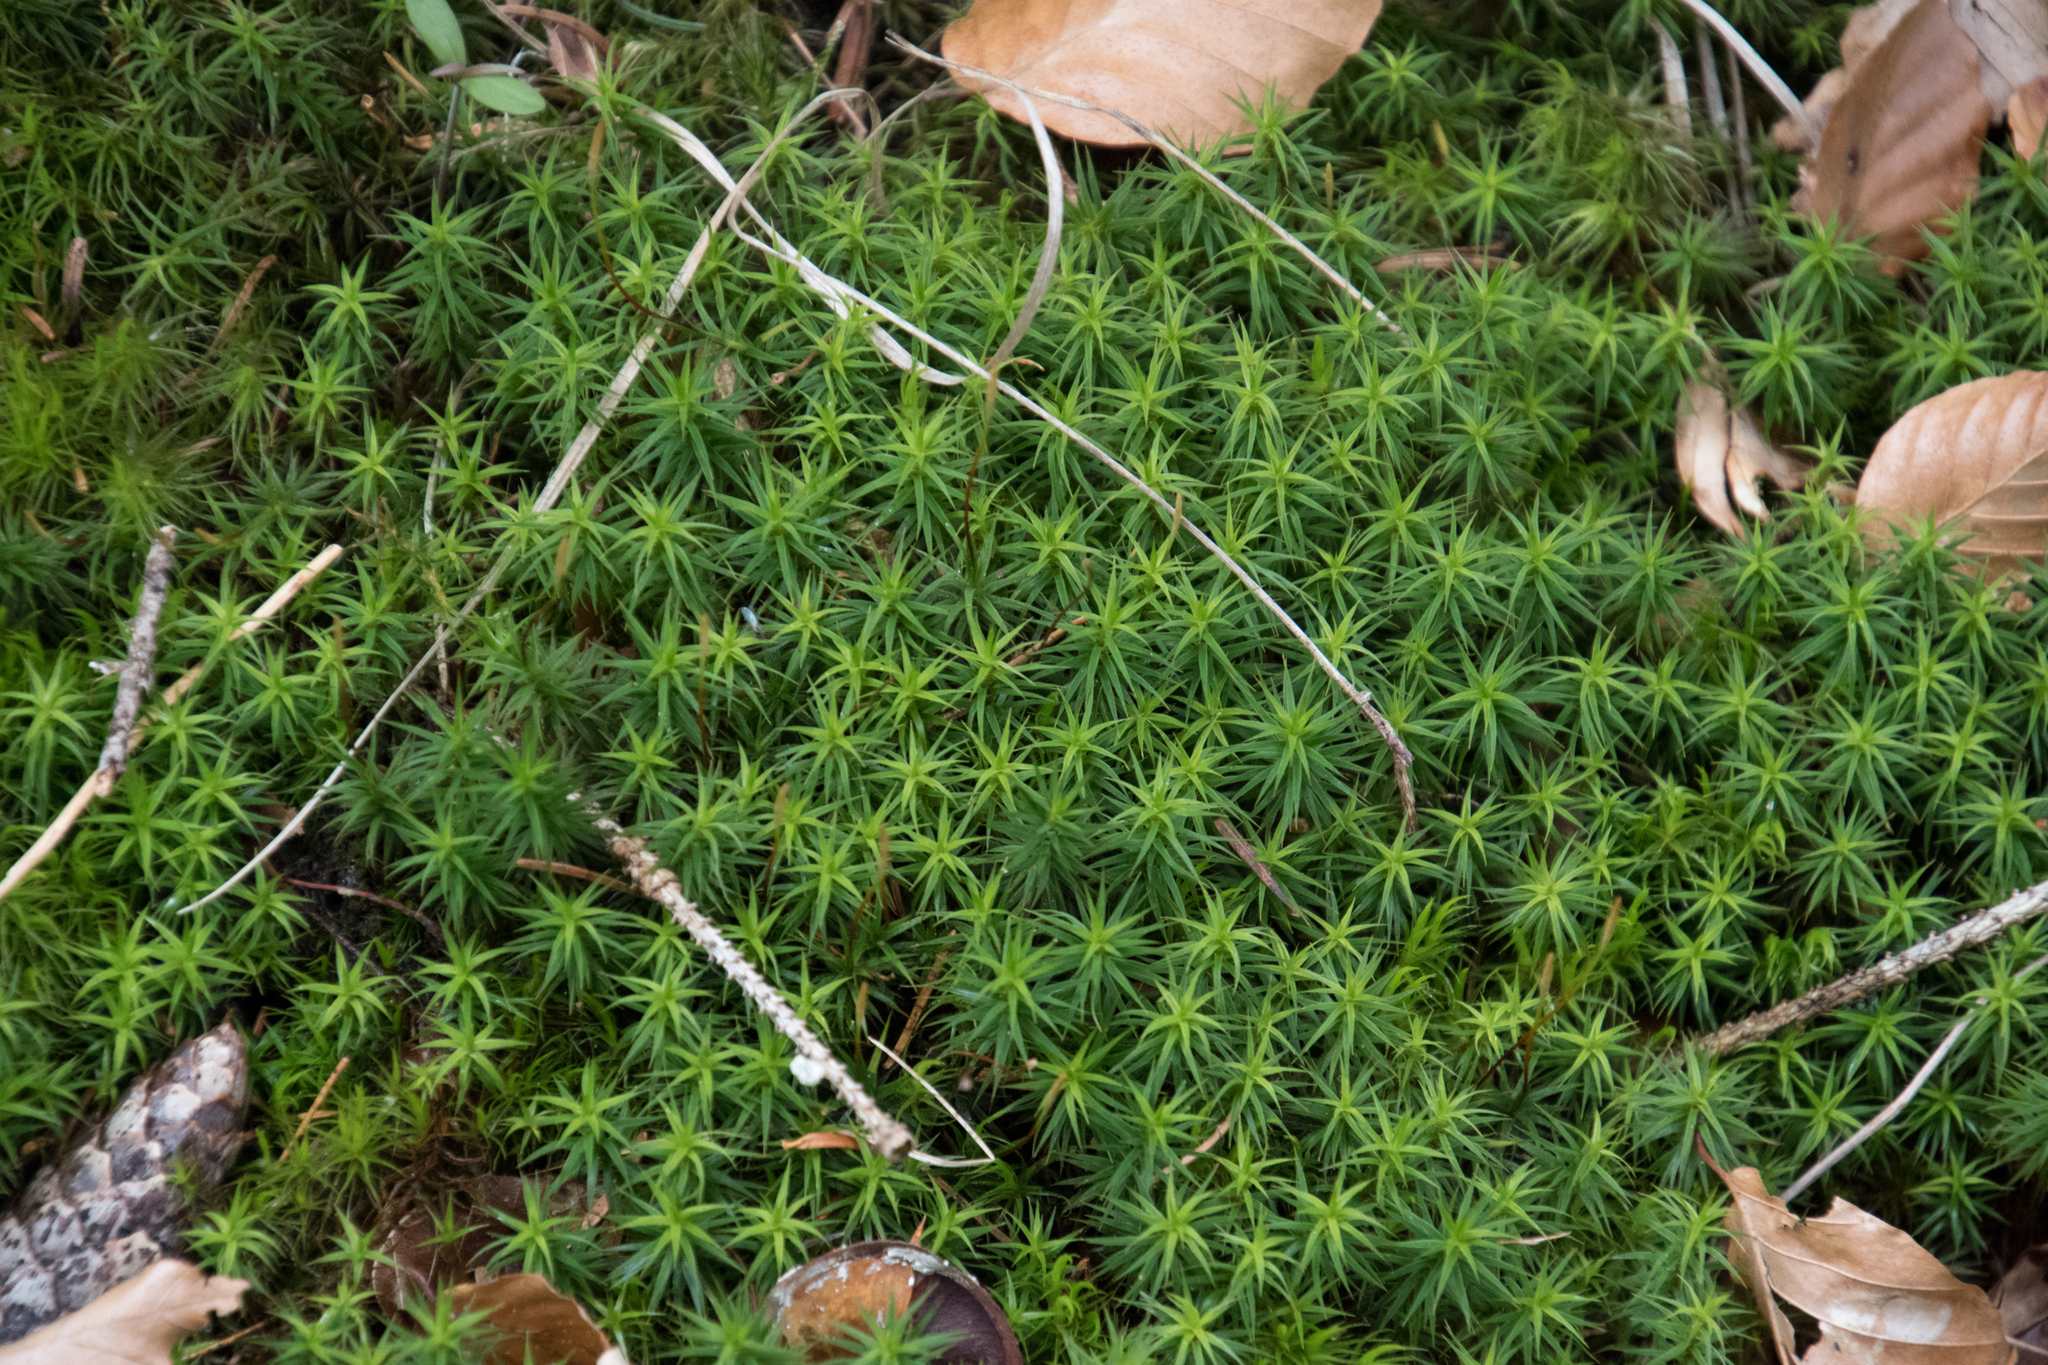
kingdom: Plantae
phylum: Bryophyta
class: Polytrichopsida
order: Polytrichales
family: Polytrichaceae
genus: Polytrichum
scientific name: Polytrichum formosum
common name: Bank haircap moss
